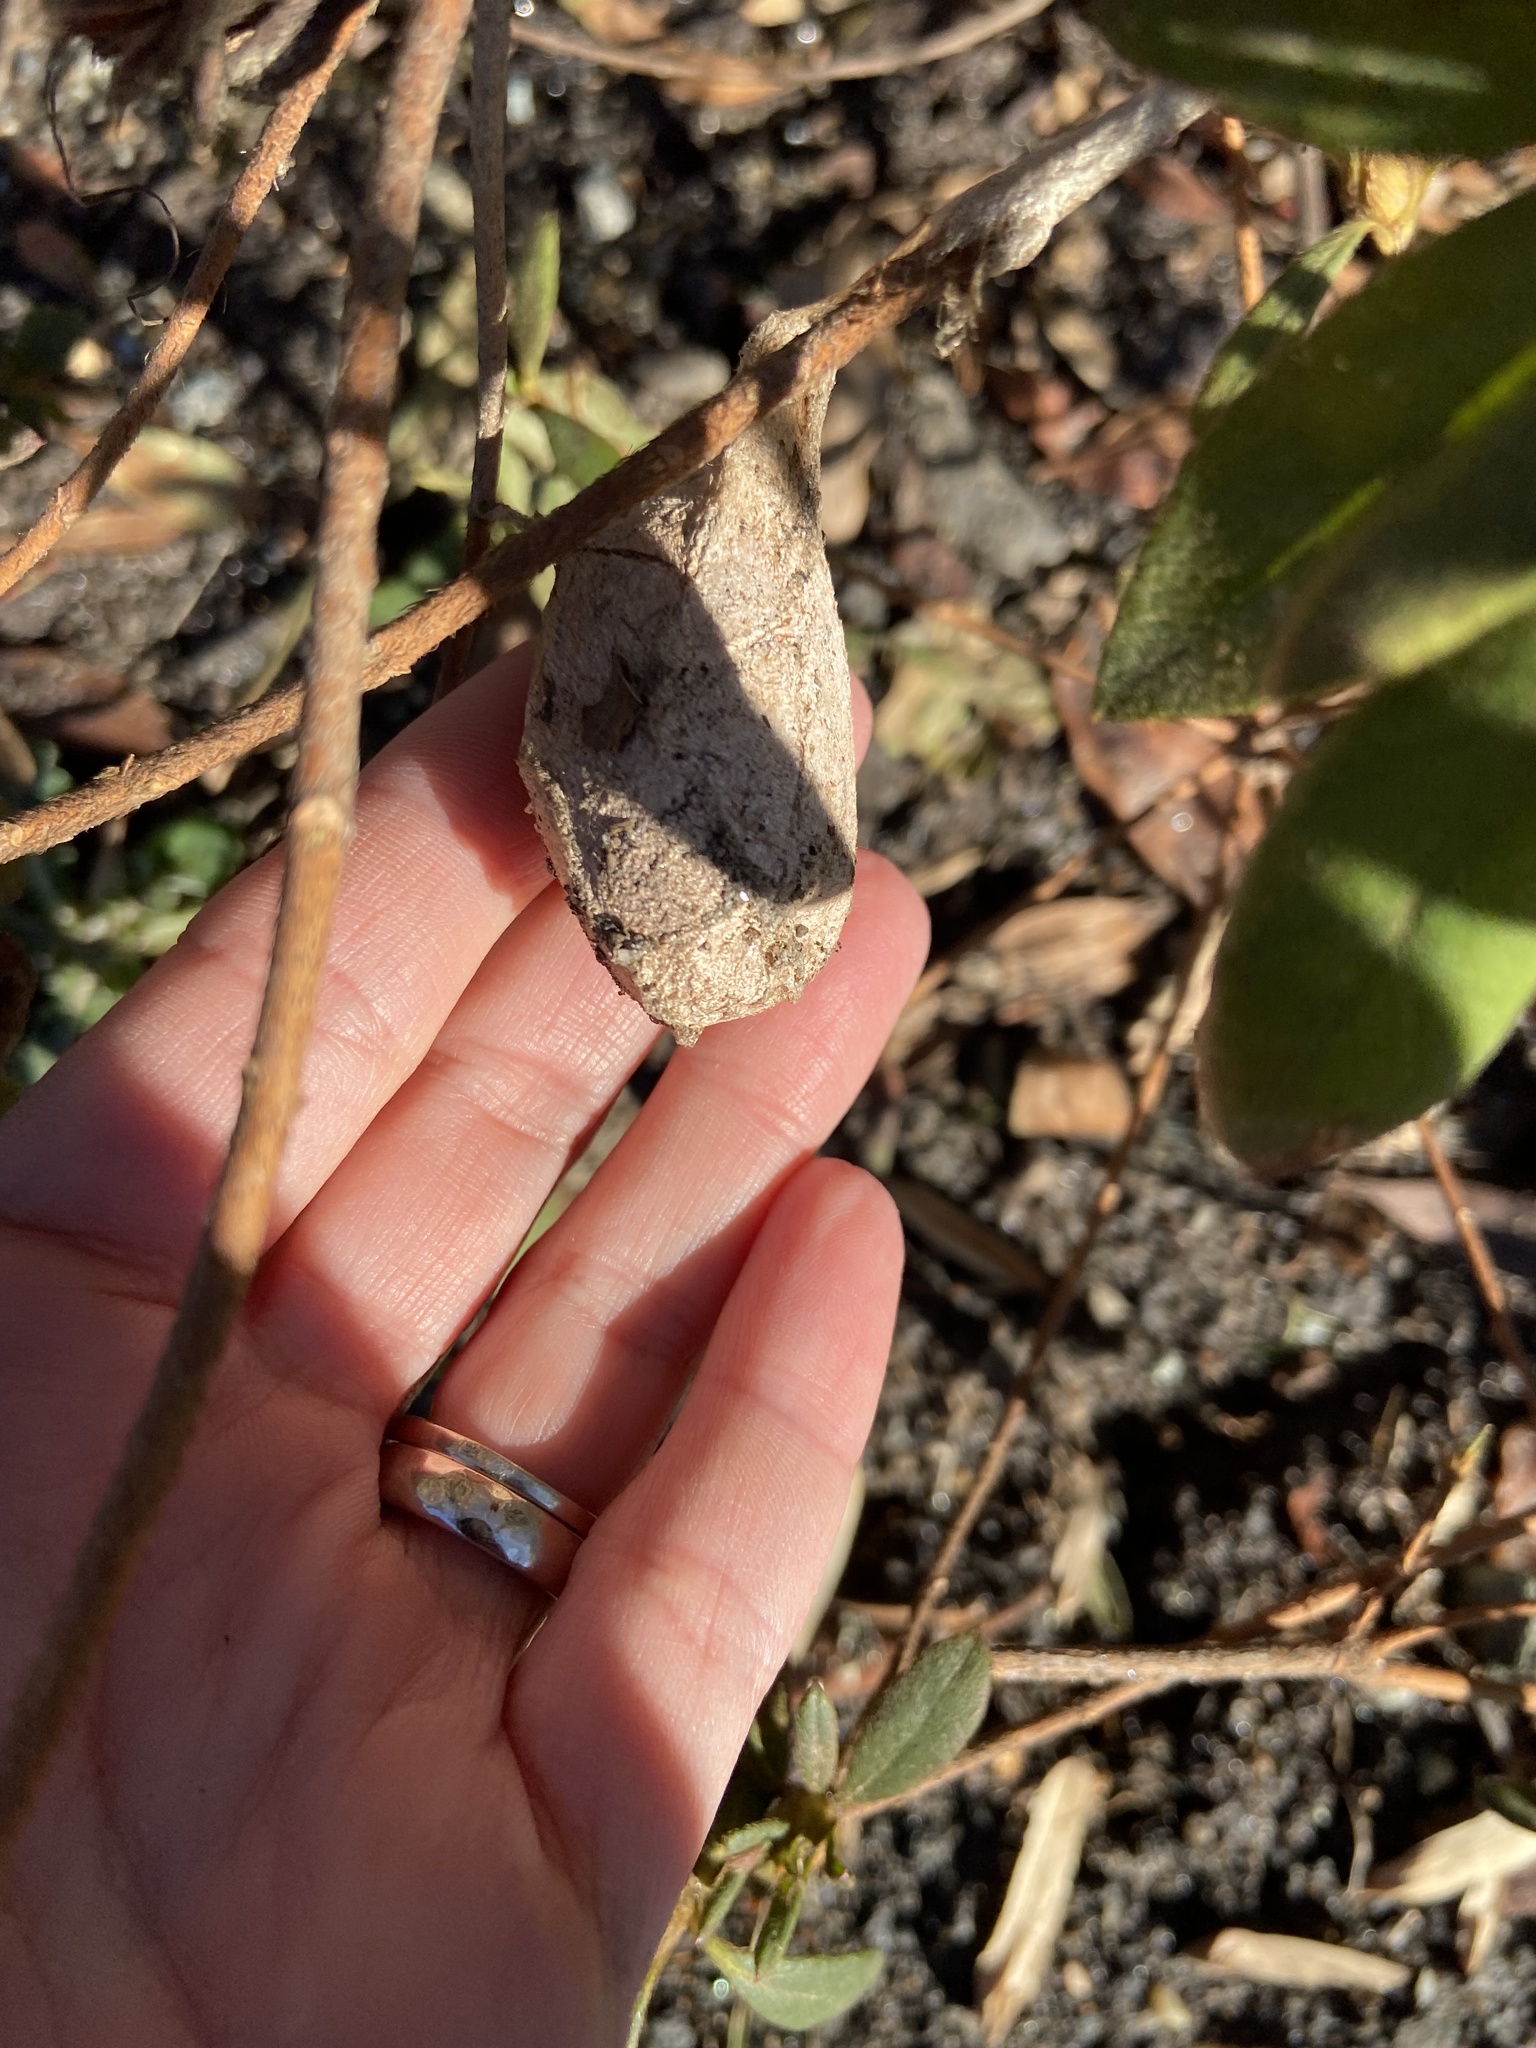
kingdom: Animalia
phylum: Arthropoda
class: Insecta
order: Lepidoptera
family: Saturniidae
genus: Antheraea
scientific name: Antheraea polyphemus
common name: Polyphemus moth
